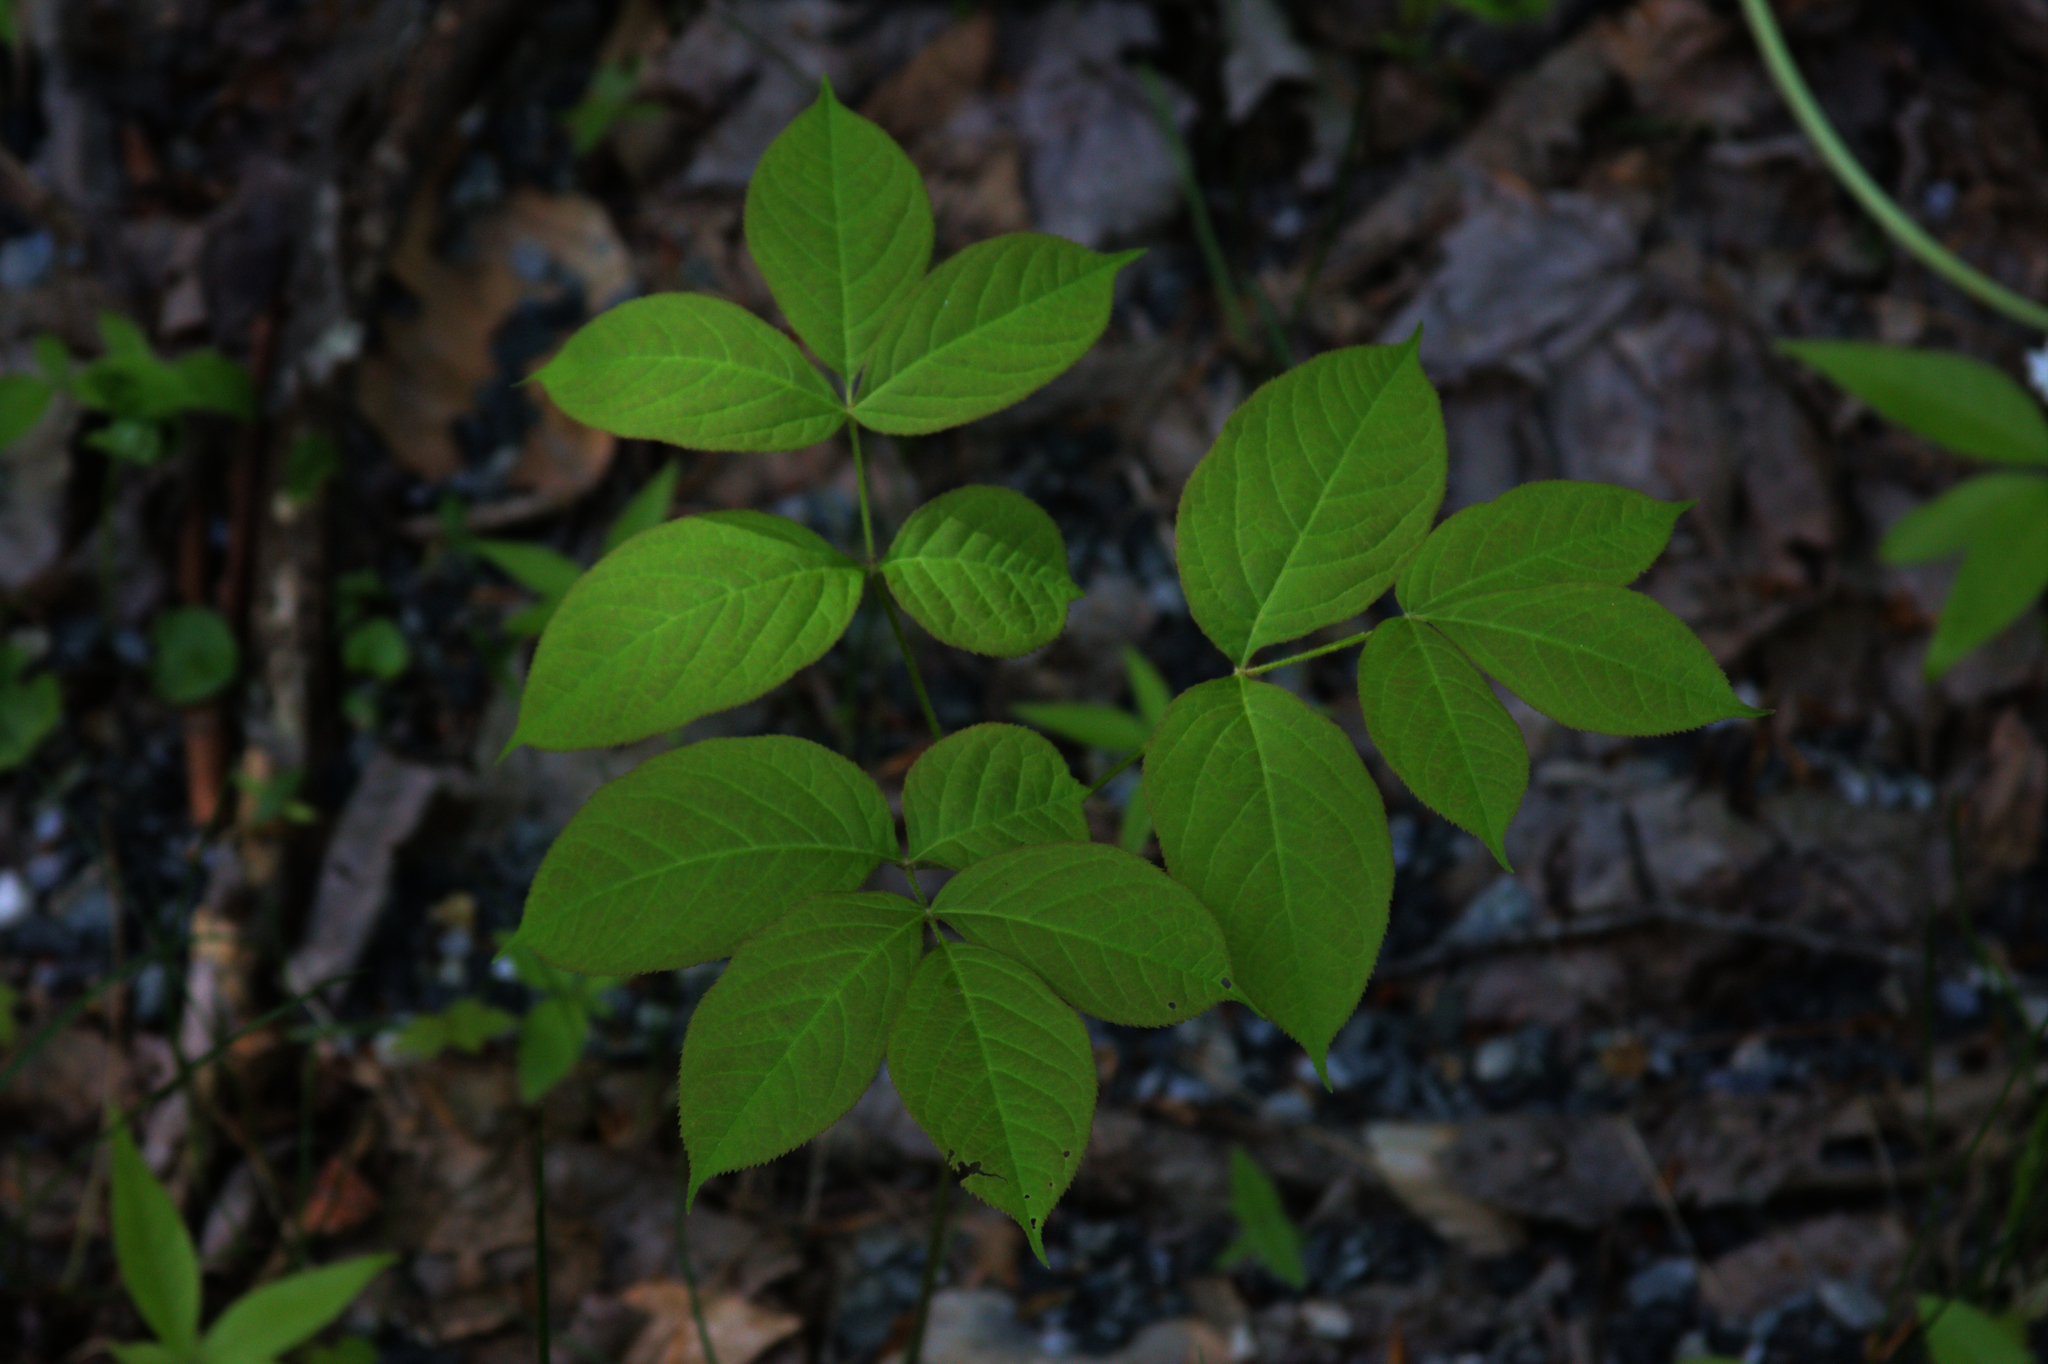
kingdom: Plantae
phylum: Tracheophyta
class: Magnoliopsida
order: Apiales
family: Araliaceae
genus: Aralia
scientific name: Aralia nudicaulis
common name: Wild sarsaparilla
